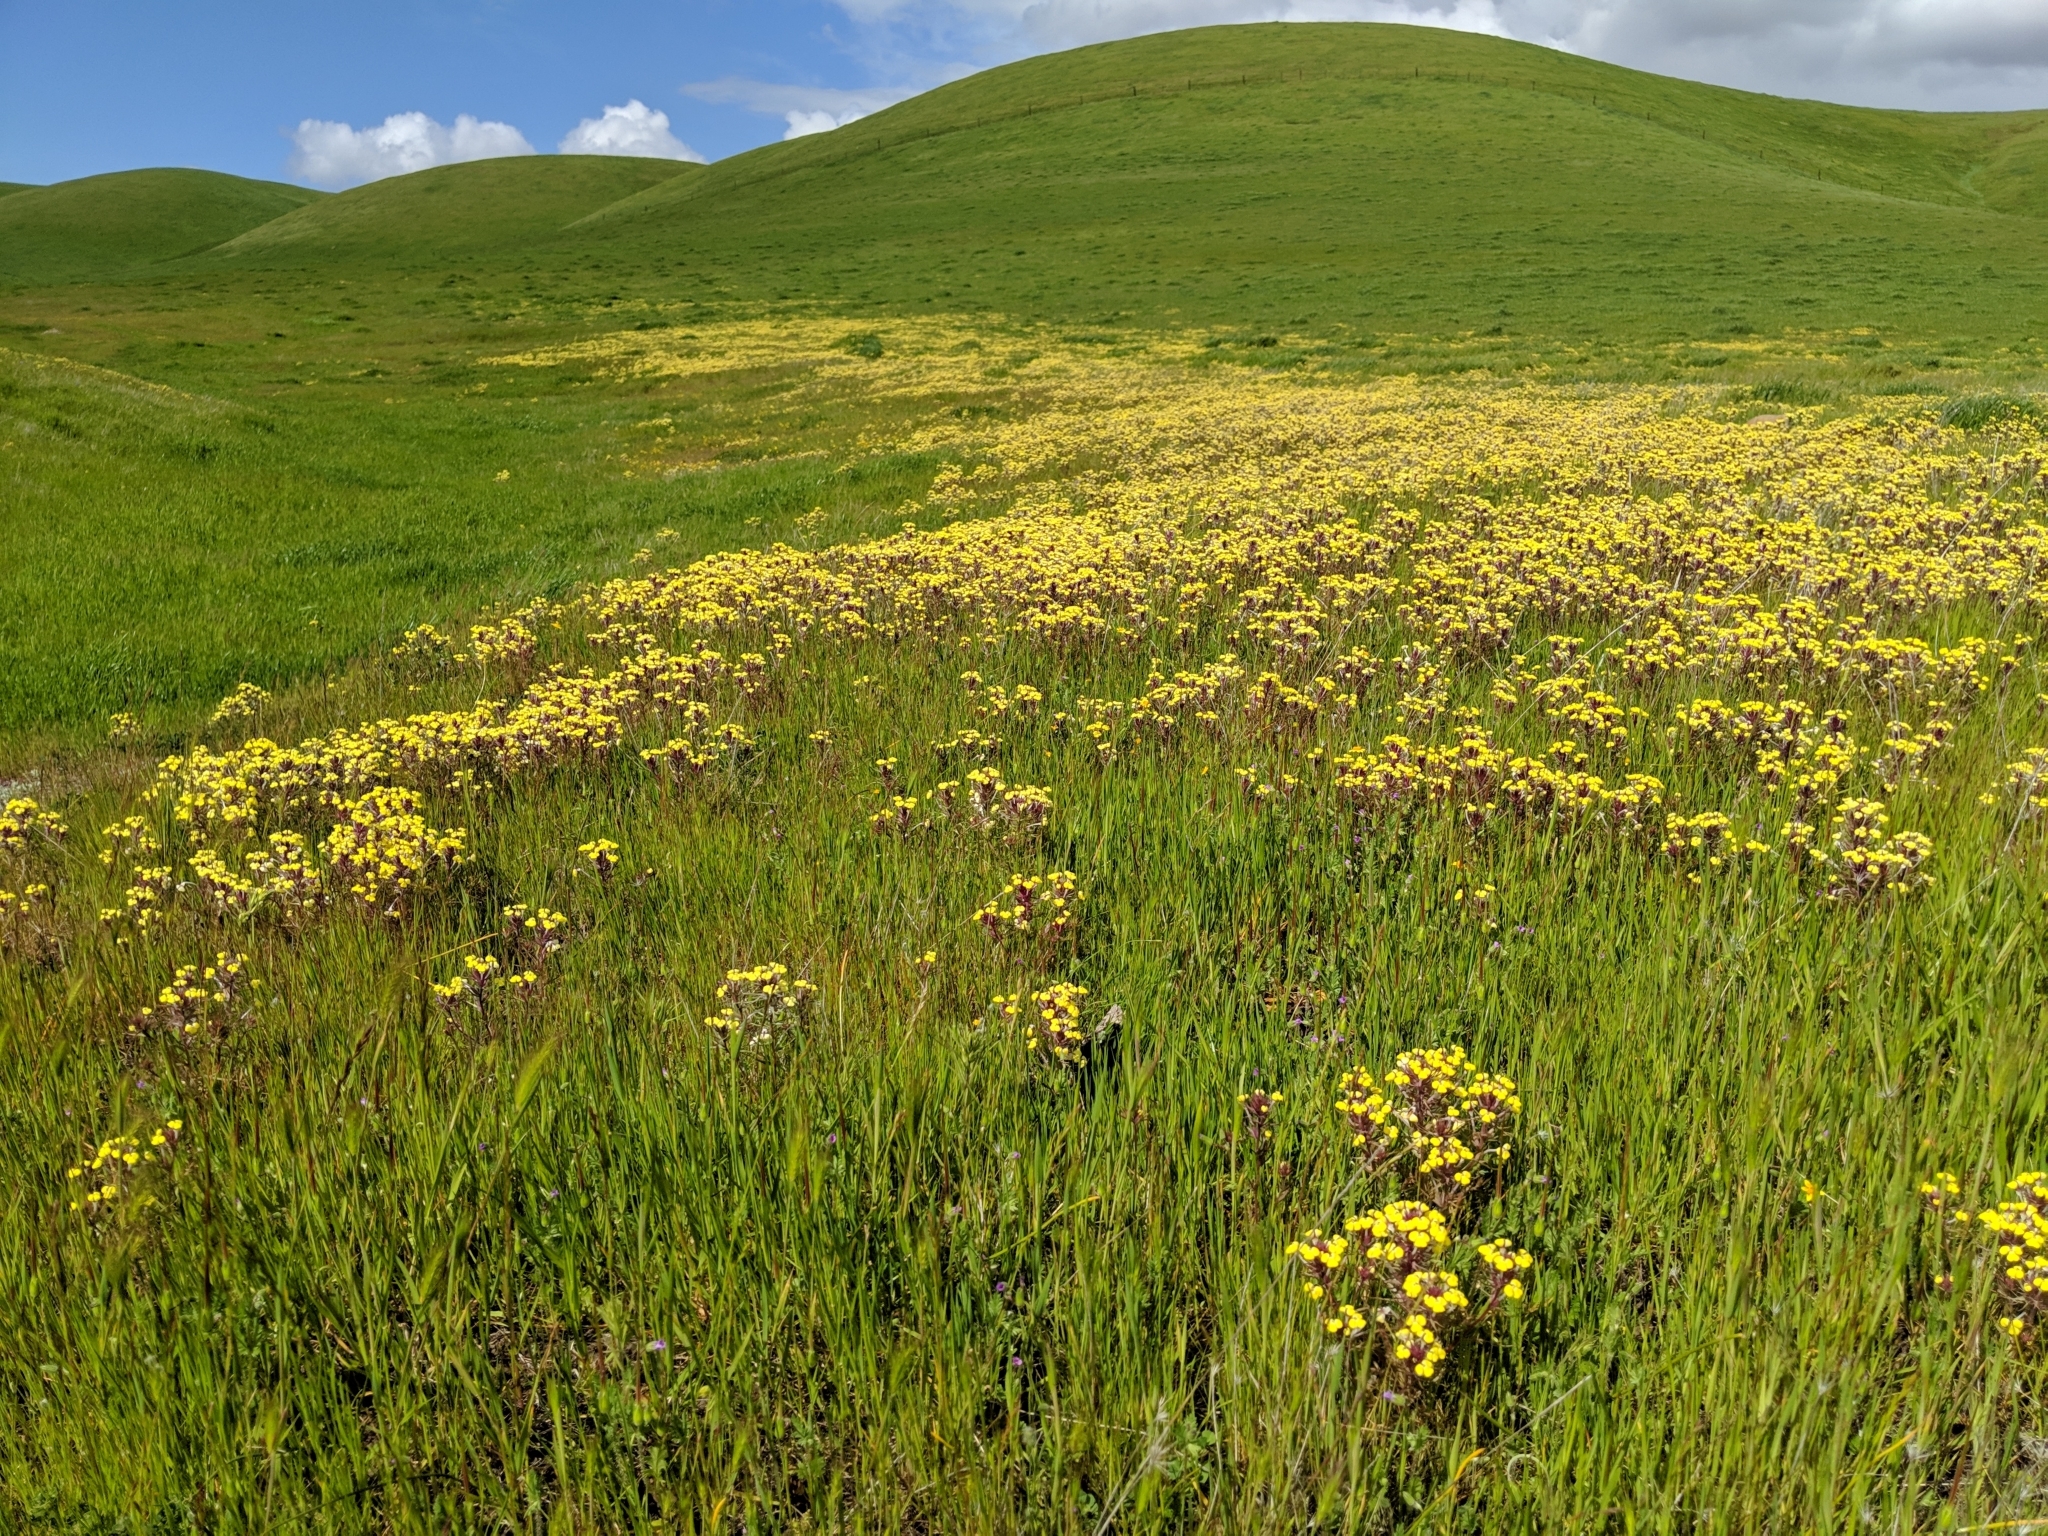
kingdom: Plantae
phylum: Tracheophyta
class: Magnoliopsida
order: Lamiales
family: Orobanchaceae
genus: Triphysaria
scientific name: Triphysaria eriantha
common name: Johnny-tuck
